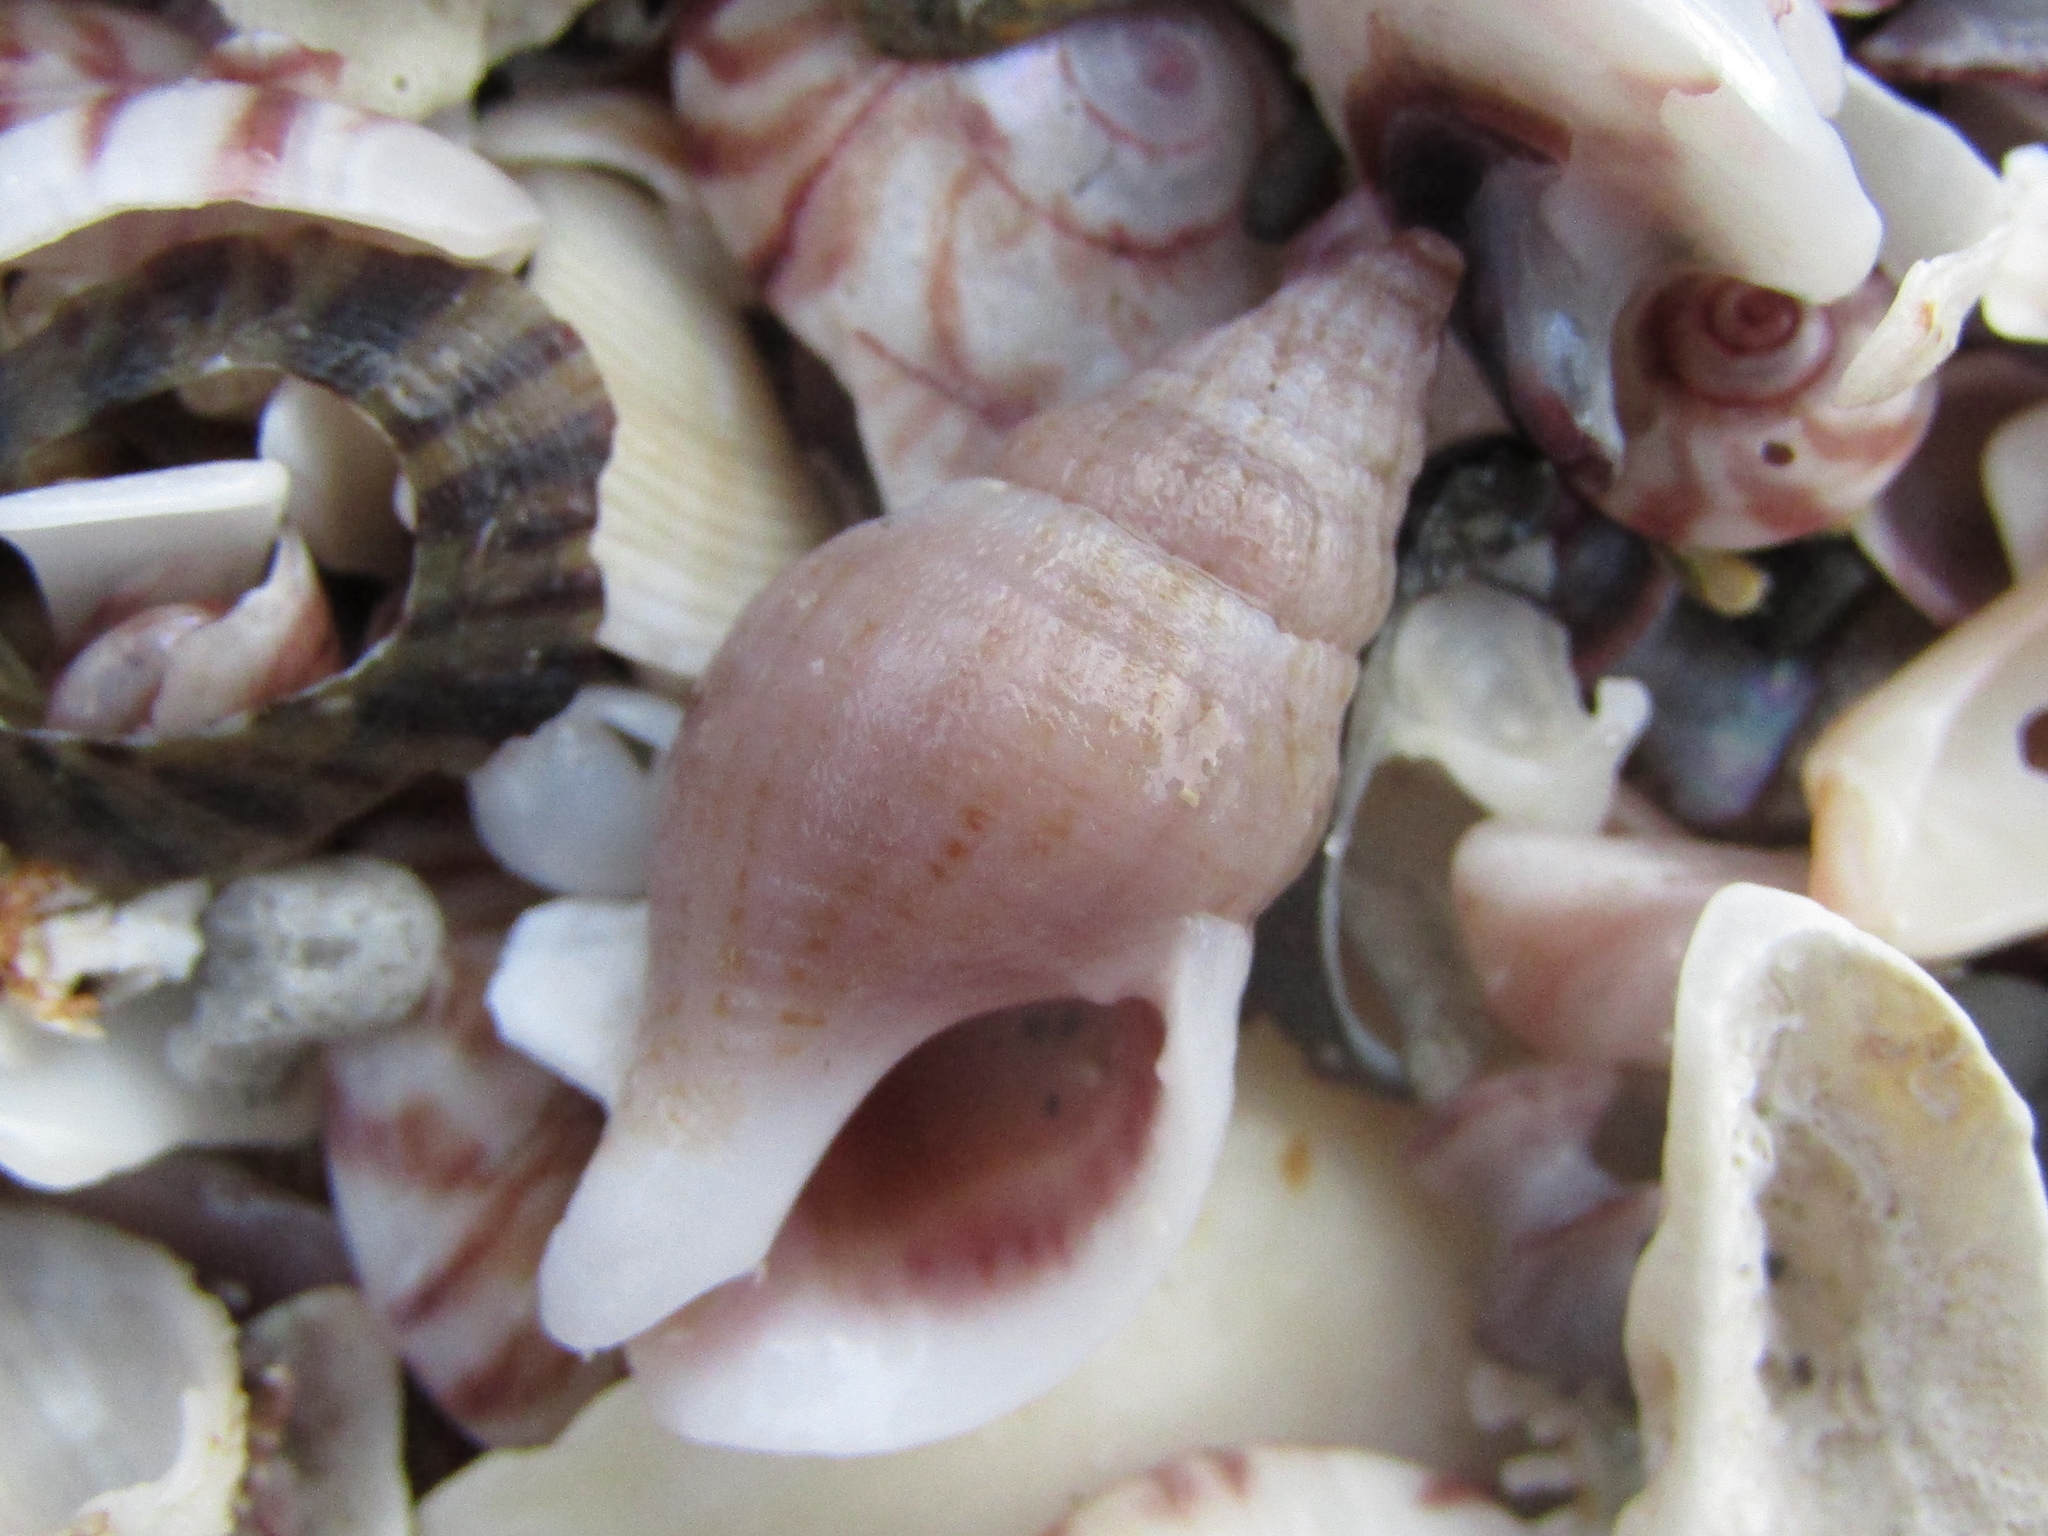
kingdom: Animalia
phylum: Mollusca
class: Gastropoda
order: Neogastropoda
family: Tudiclidae
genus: Buccinulum
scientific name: Buccinulum vittatum
